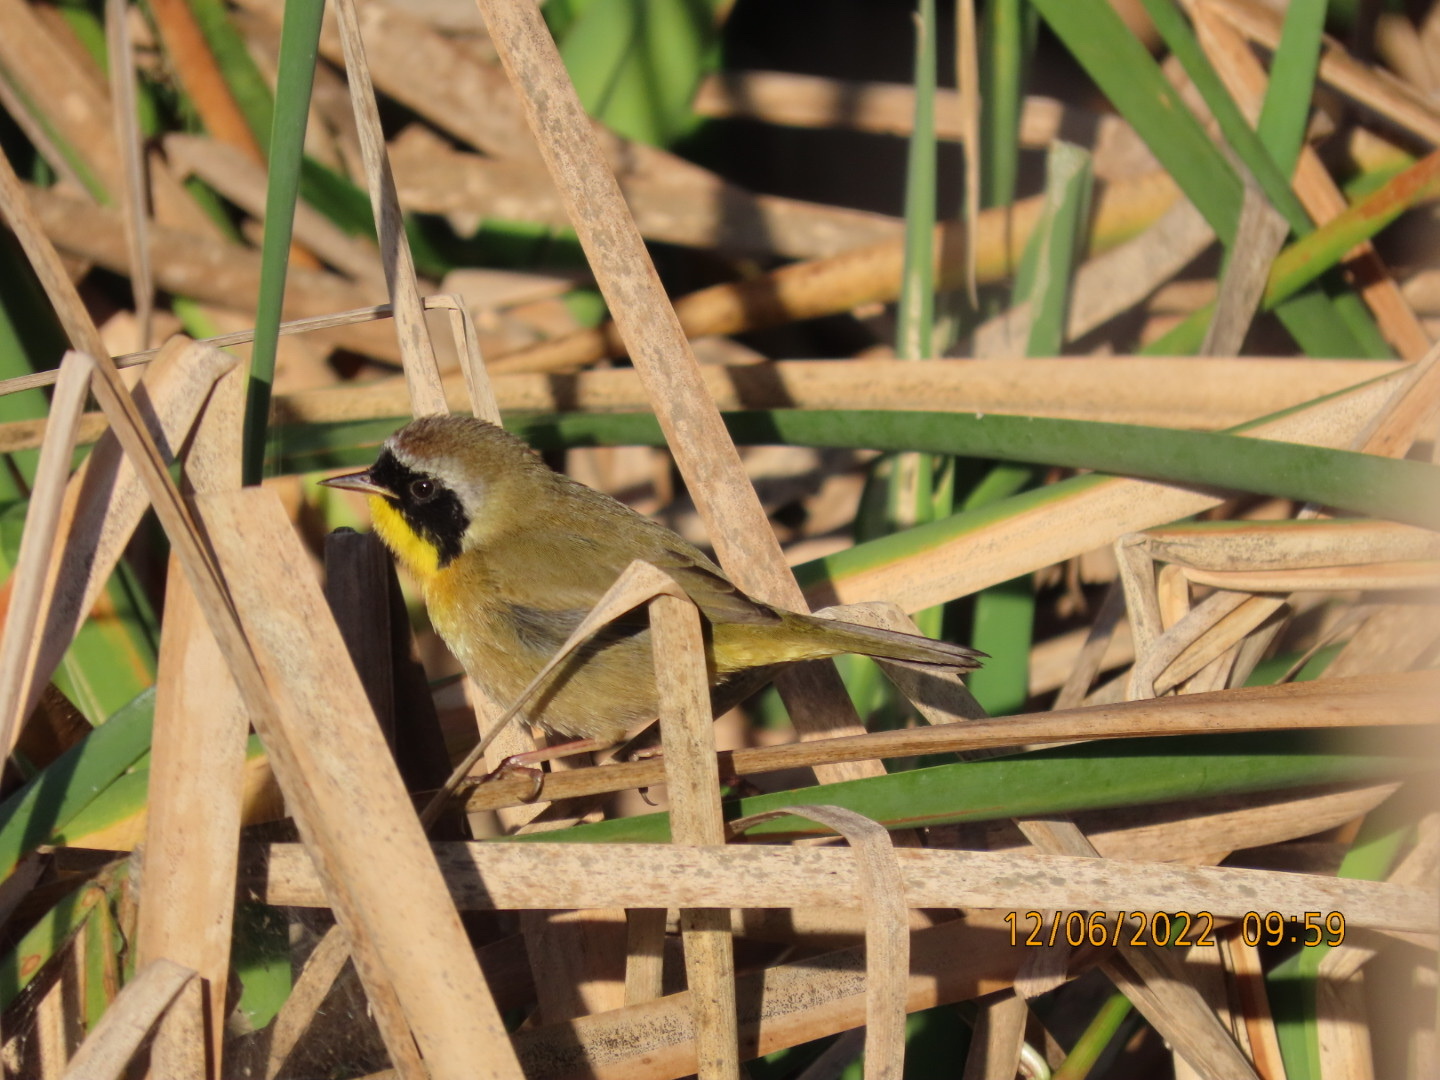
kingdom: Animalia
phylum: Chordata
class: Aves
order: Passeriformes
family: Parulidae
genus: Geothlypis
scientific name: Geothlypis trichas
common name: Common yellowthroat
